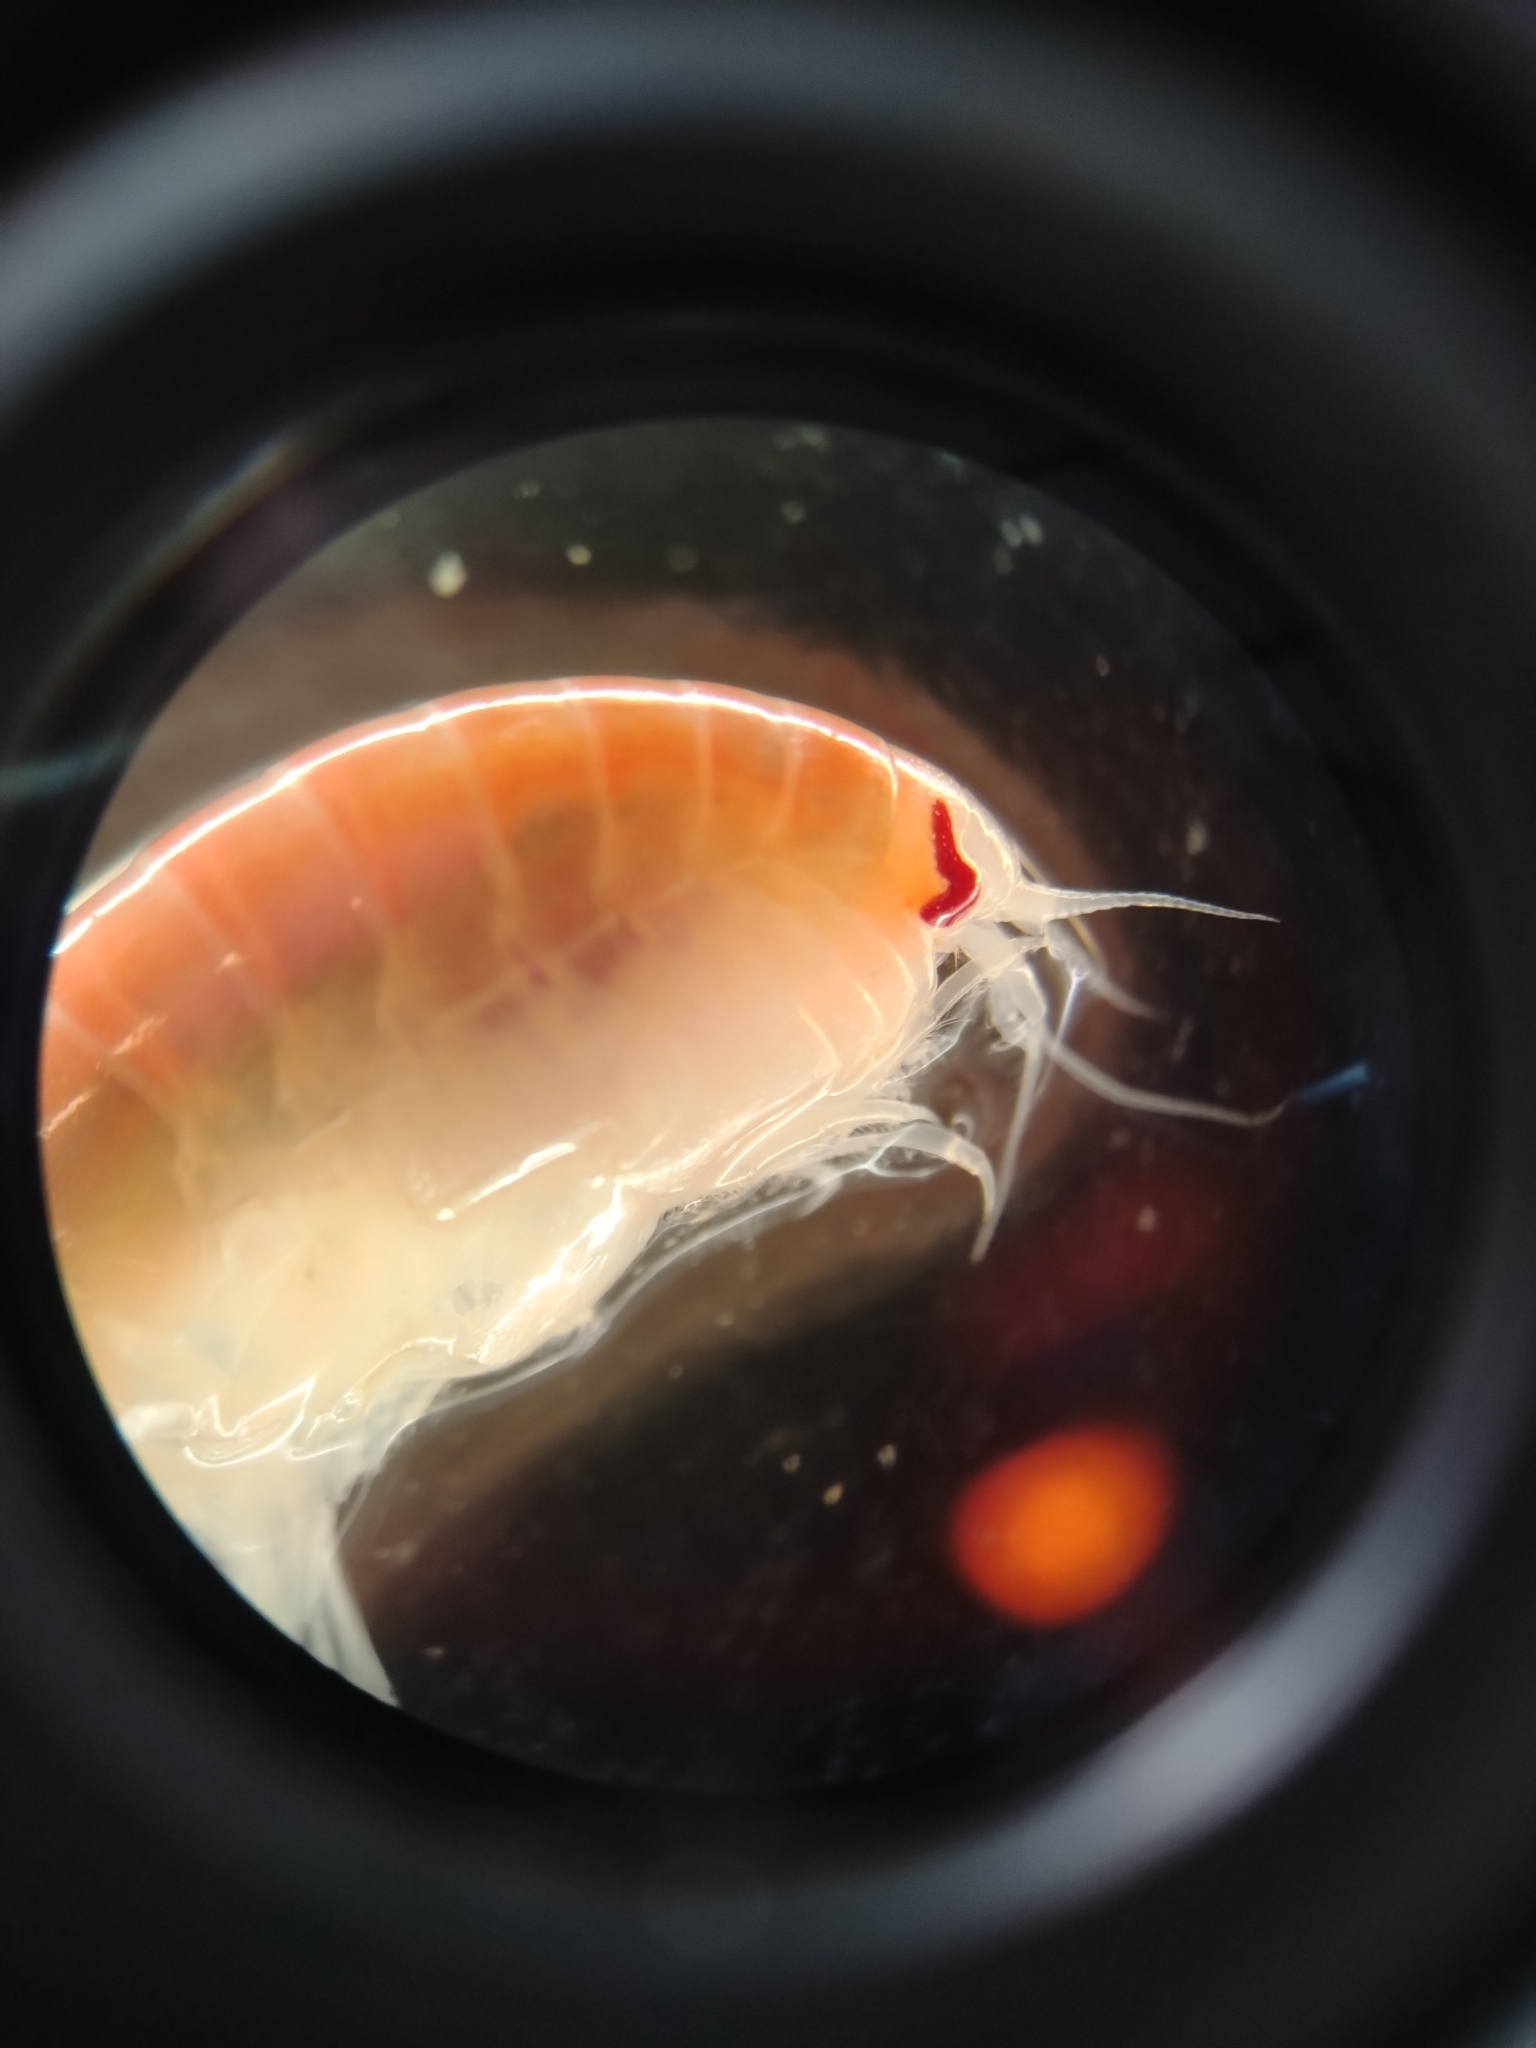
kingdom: Animalia
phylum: Arthropoda
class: Malacostraca
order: Amphipoda
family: Uristidae
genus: Tmetonyx
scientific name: Tmetonyx cicada
